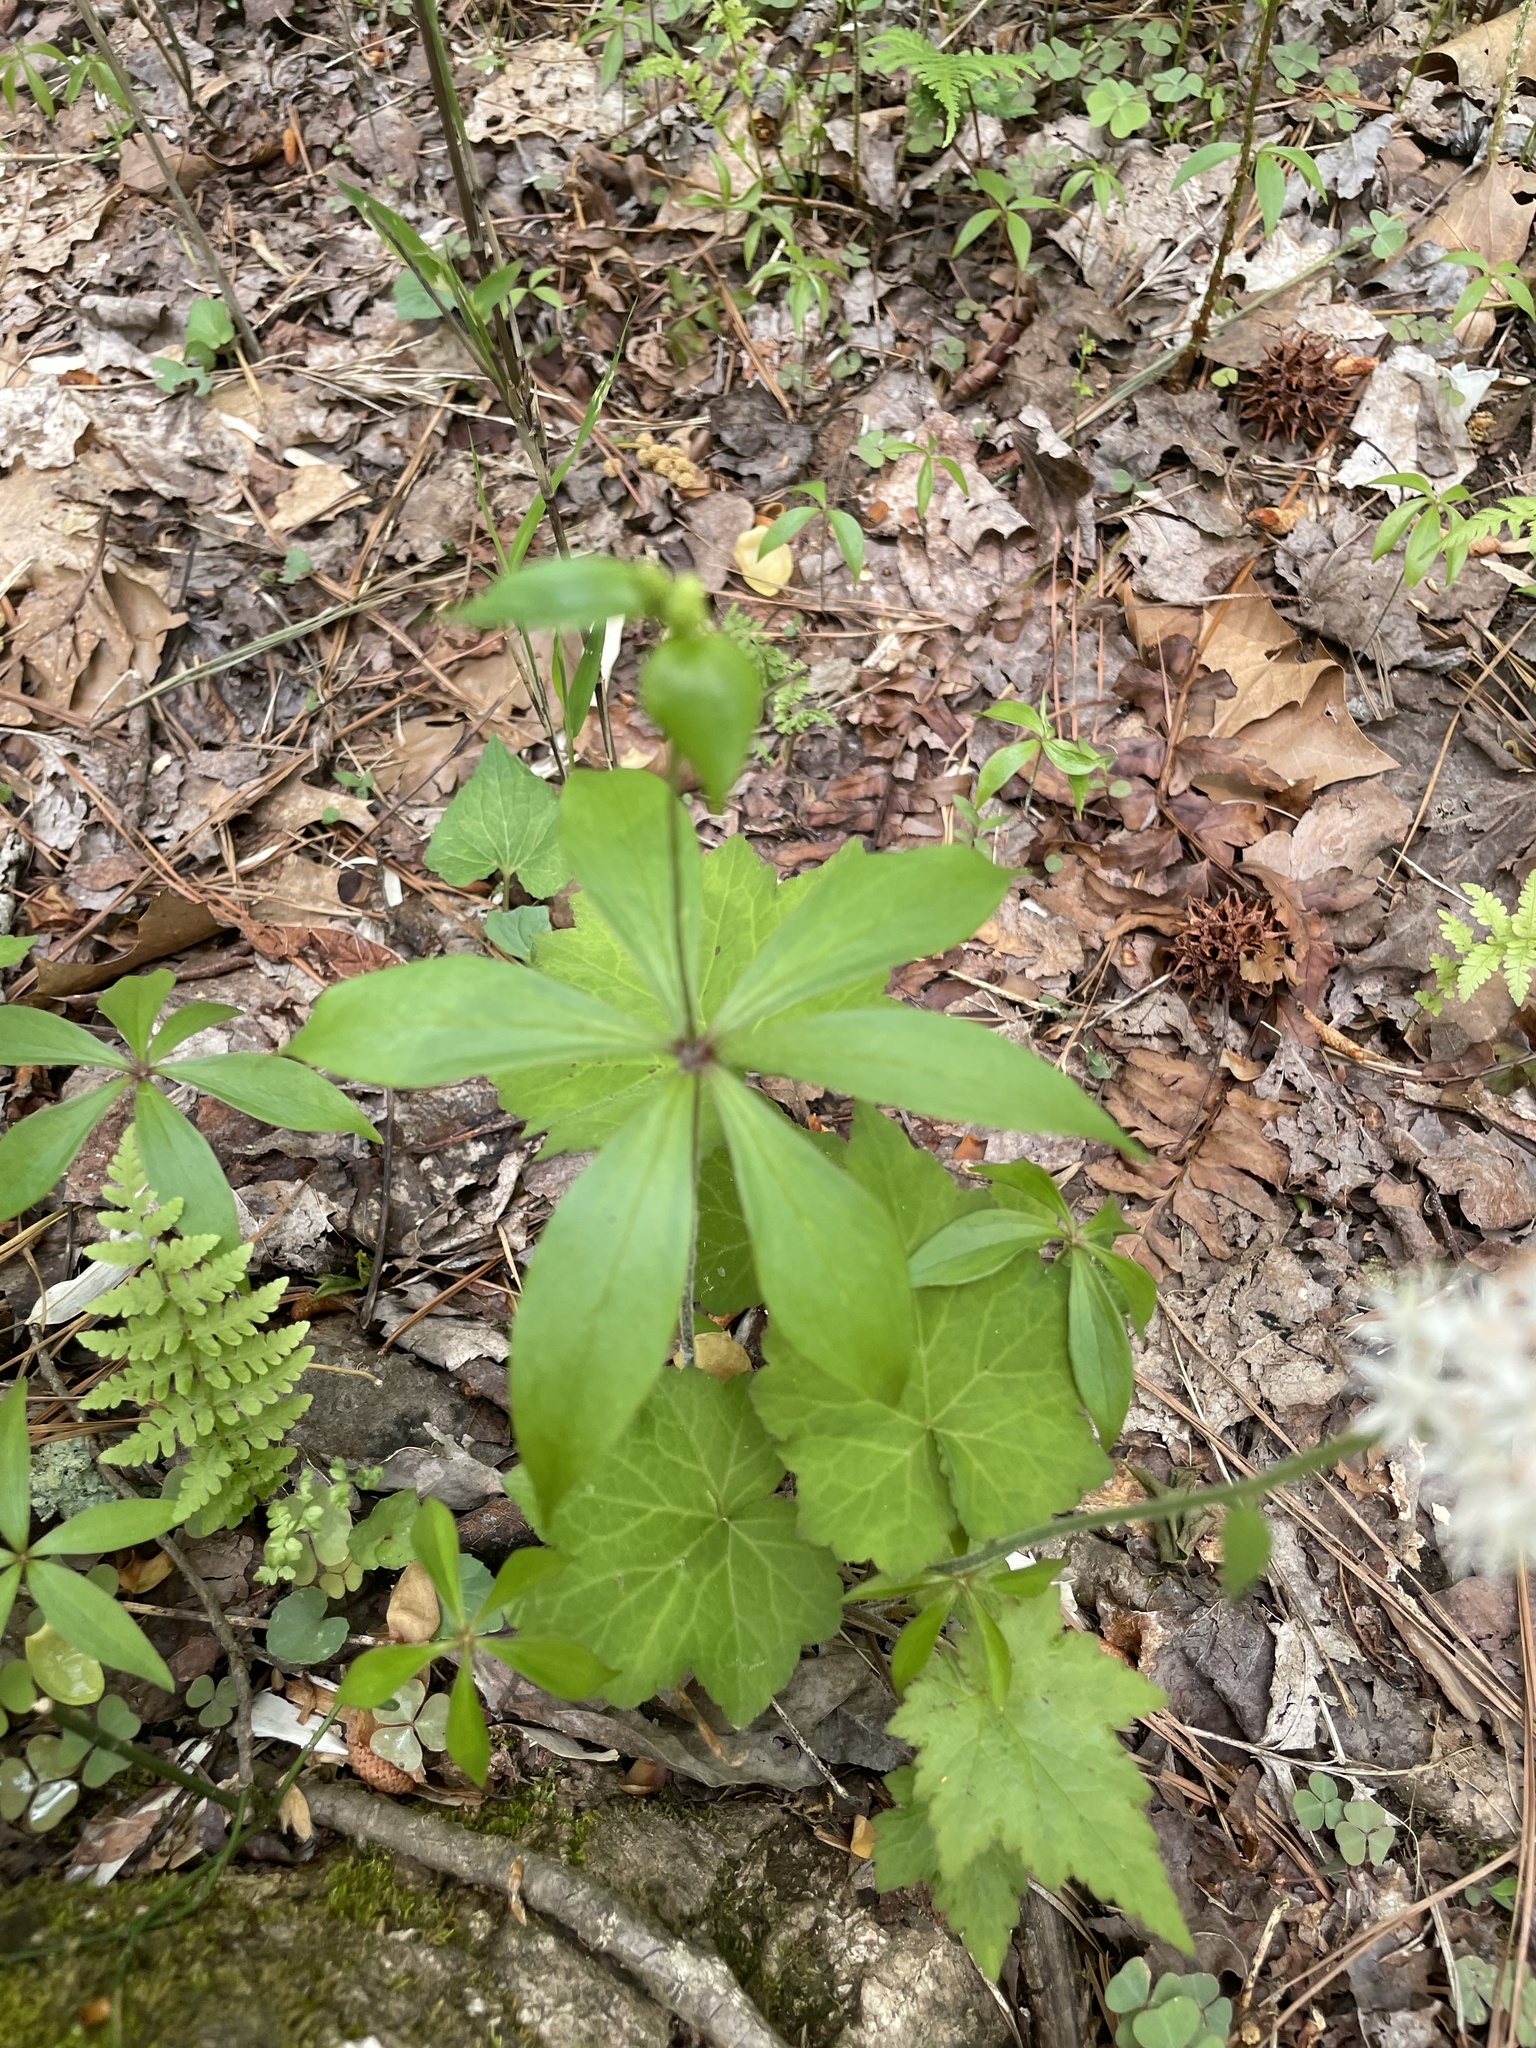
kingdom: Plantae
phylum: Tracheophyta
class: Liliopsida
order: Liliales
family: Liliaceae
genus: Medeola
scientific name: Medeola virginiana
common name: Indian cucumber-root
